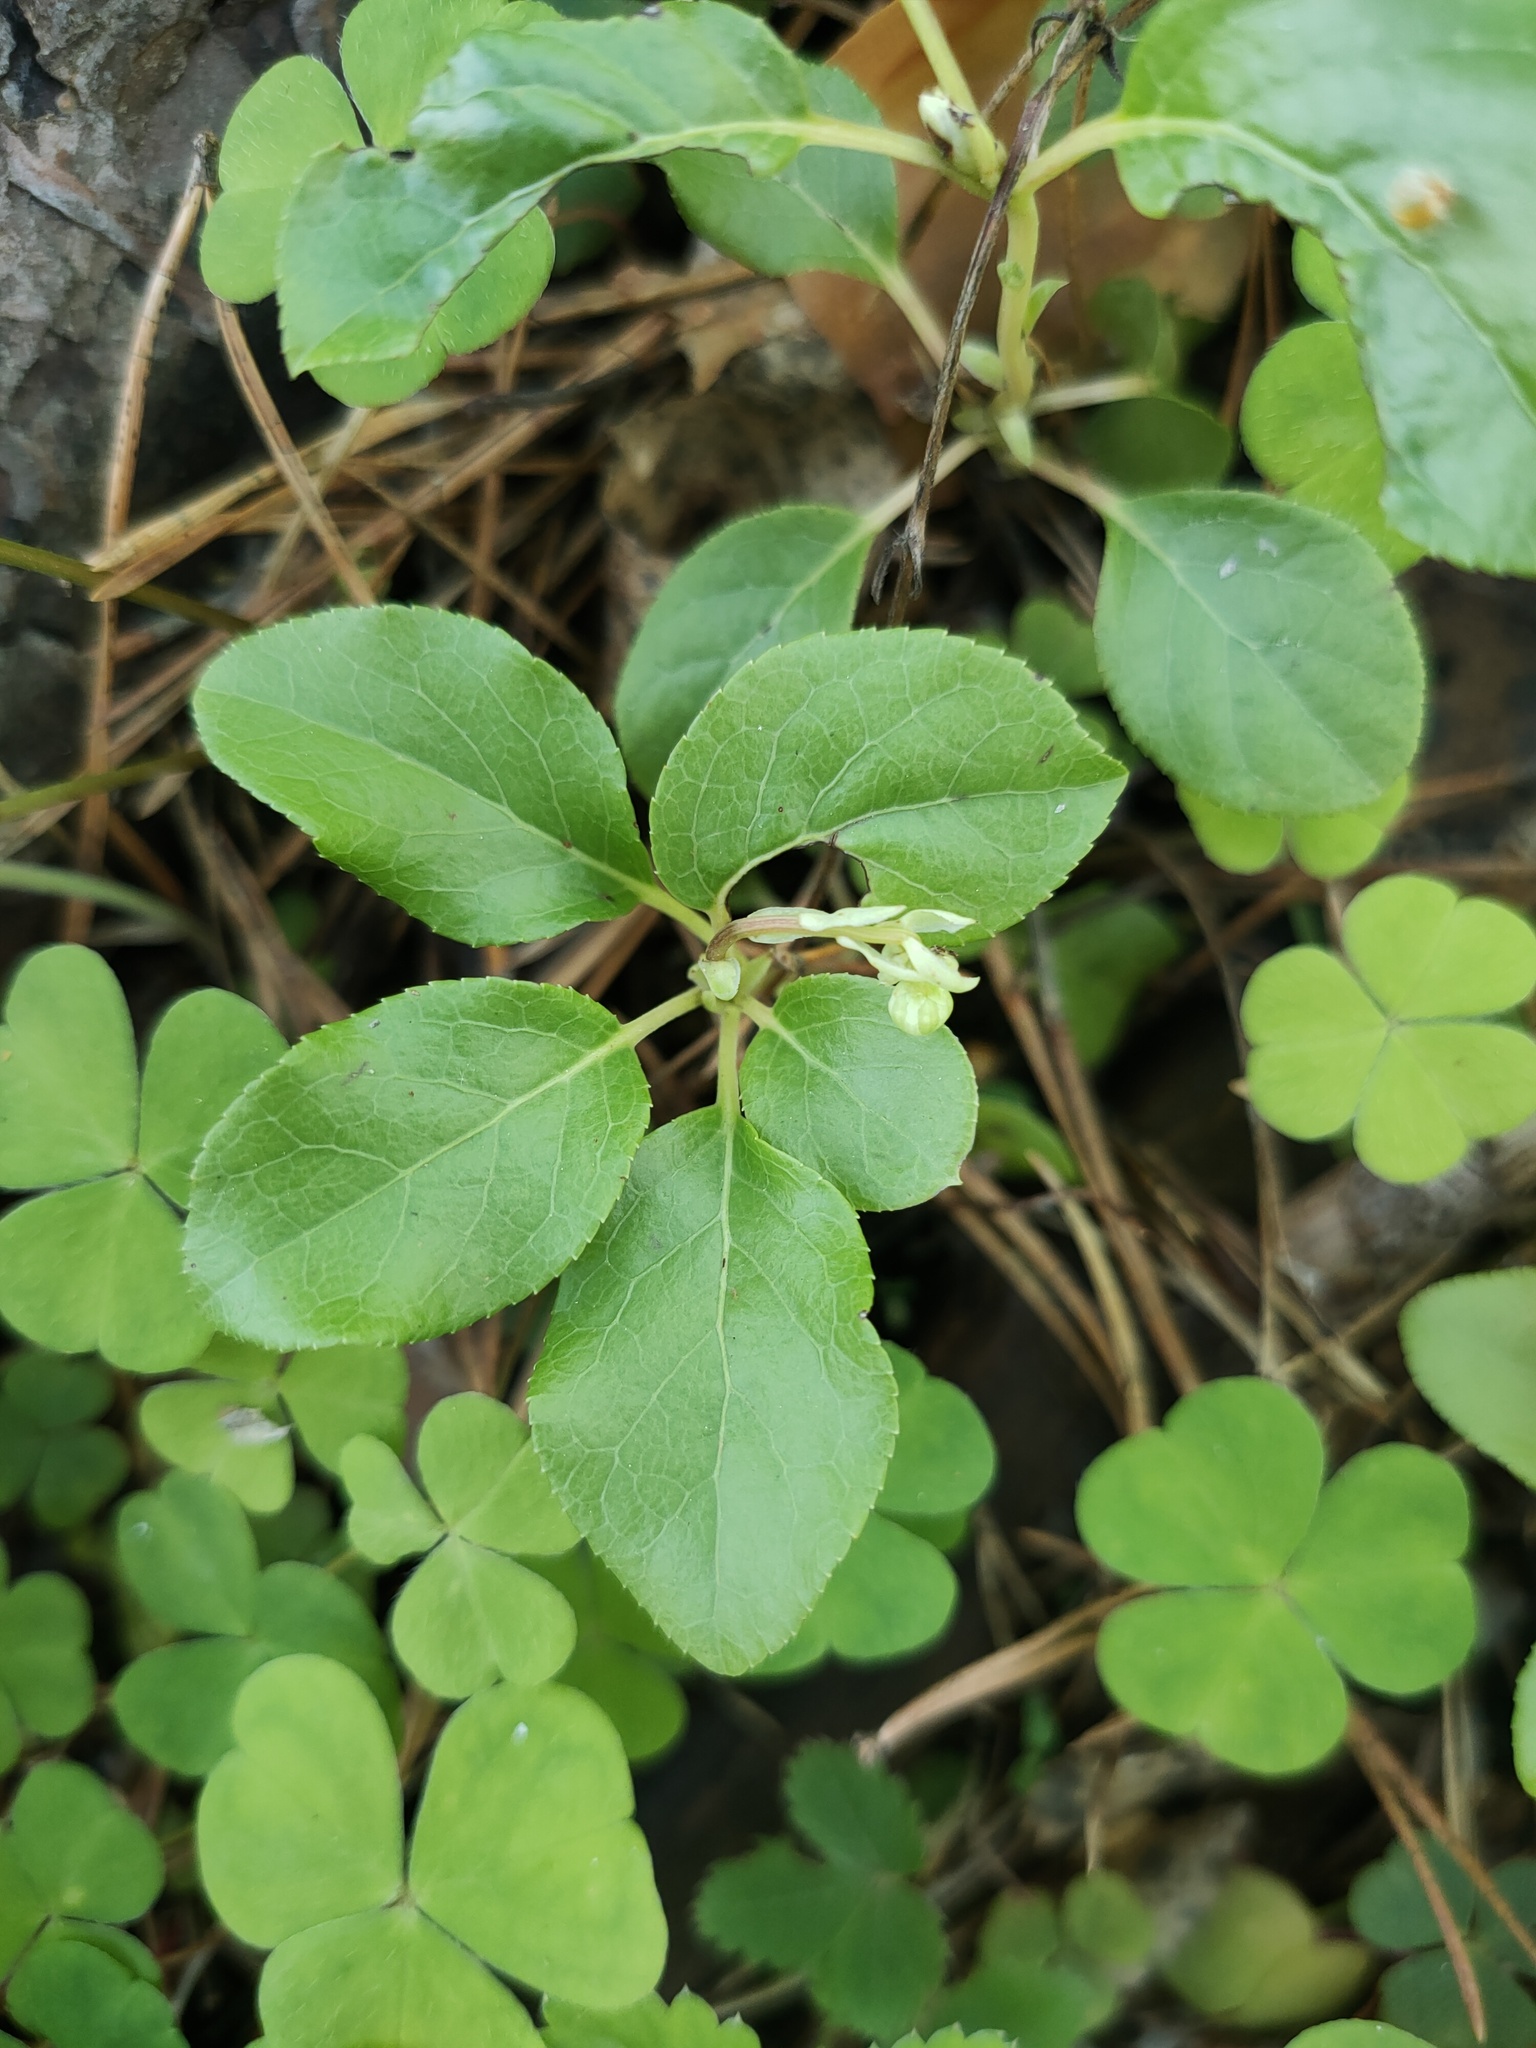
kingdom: Plantae
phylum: Tracheophyta
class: Magnoliopsida
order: Ericales
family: Ericaceae
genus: Orthilia
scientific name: Orthilia secunda
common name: One-sided orthilia
